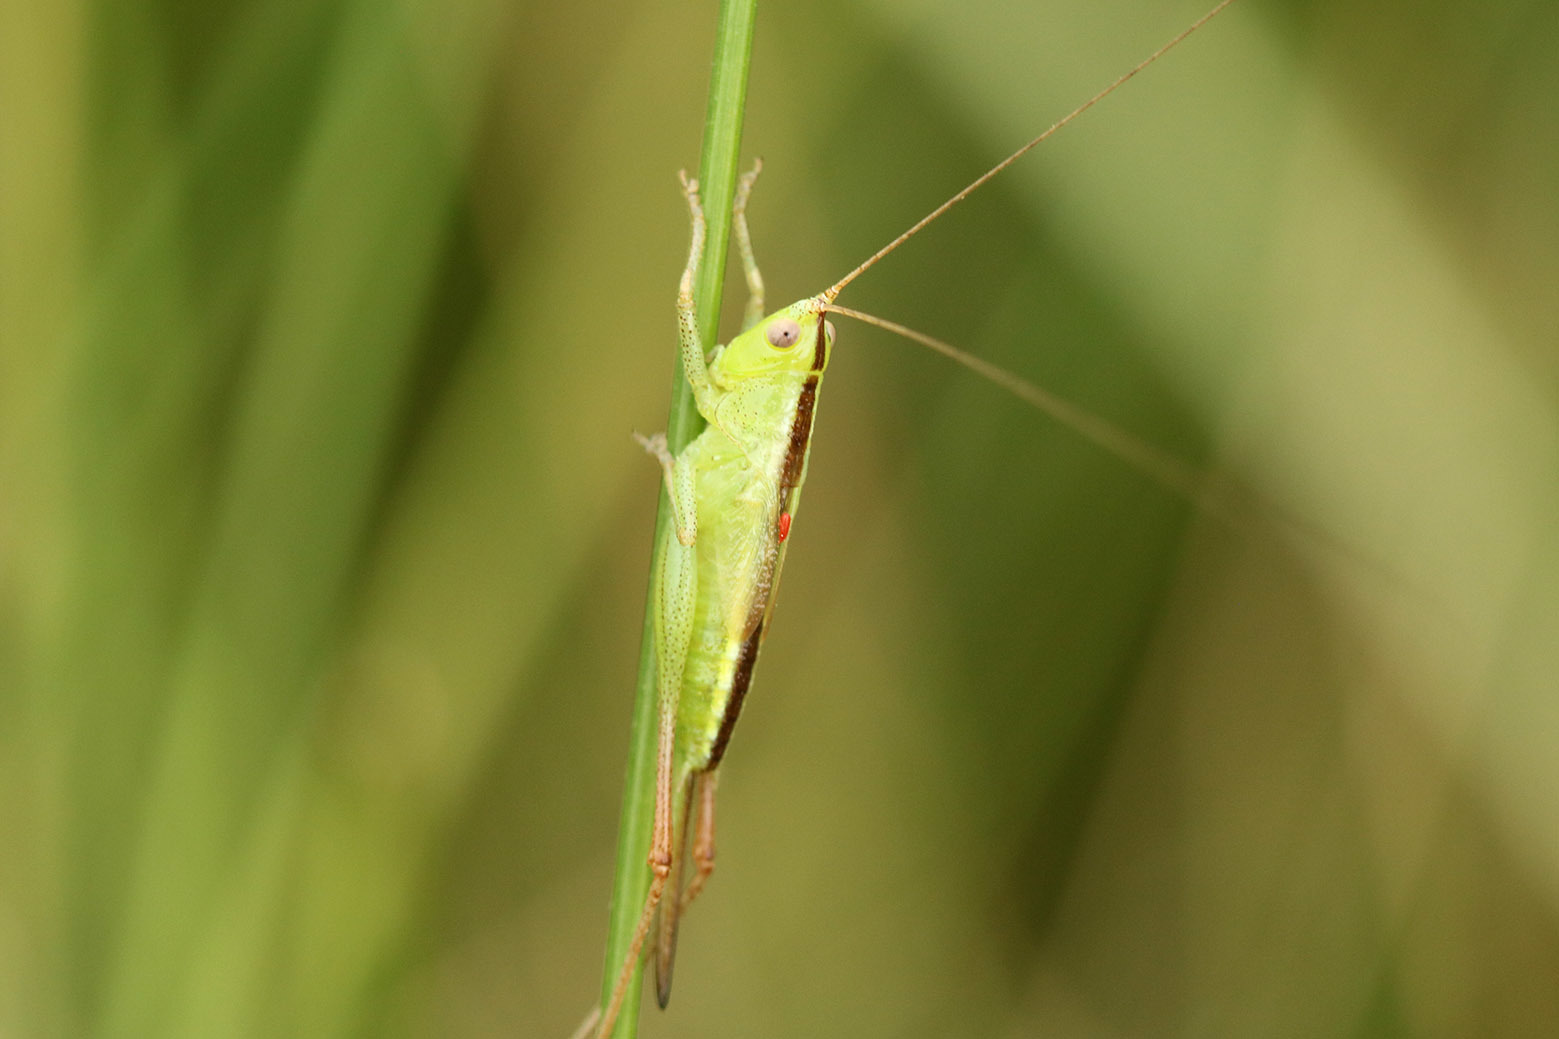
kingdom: Animalia
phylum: Arthropoda
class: Insecta
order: Orthoptera
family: Tettigoniidae
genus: Conocephalus
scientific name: Conocephalus longipes
